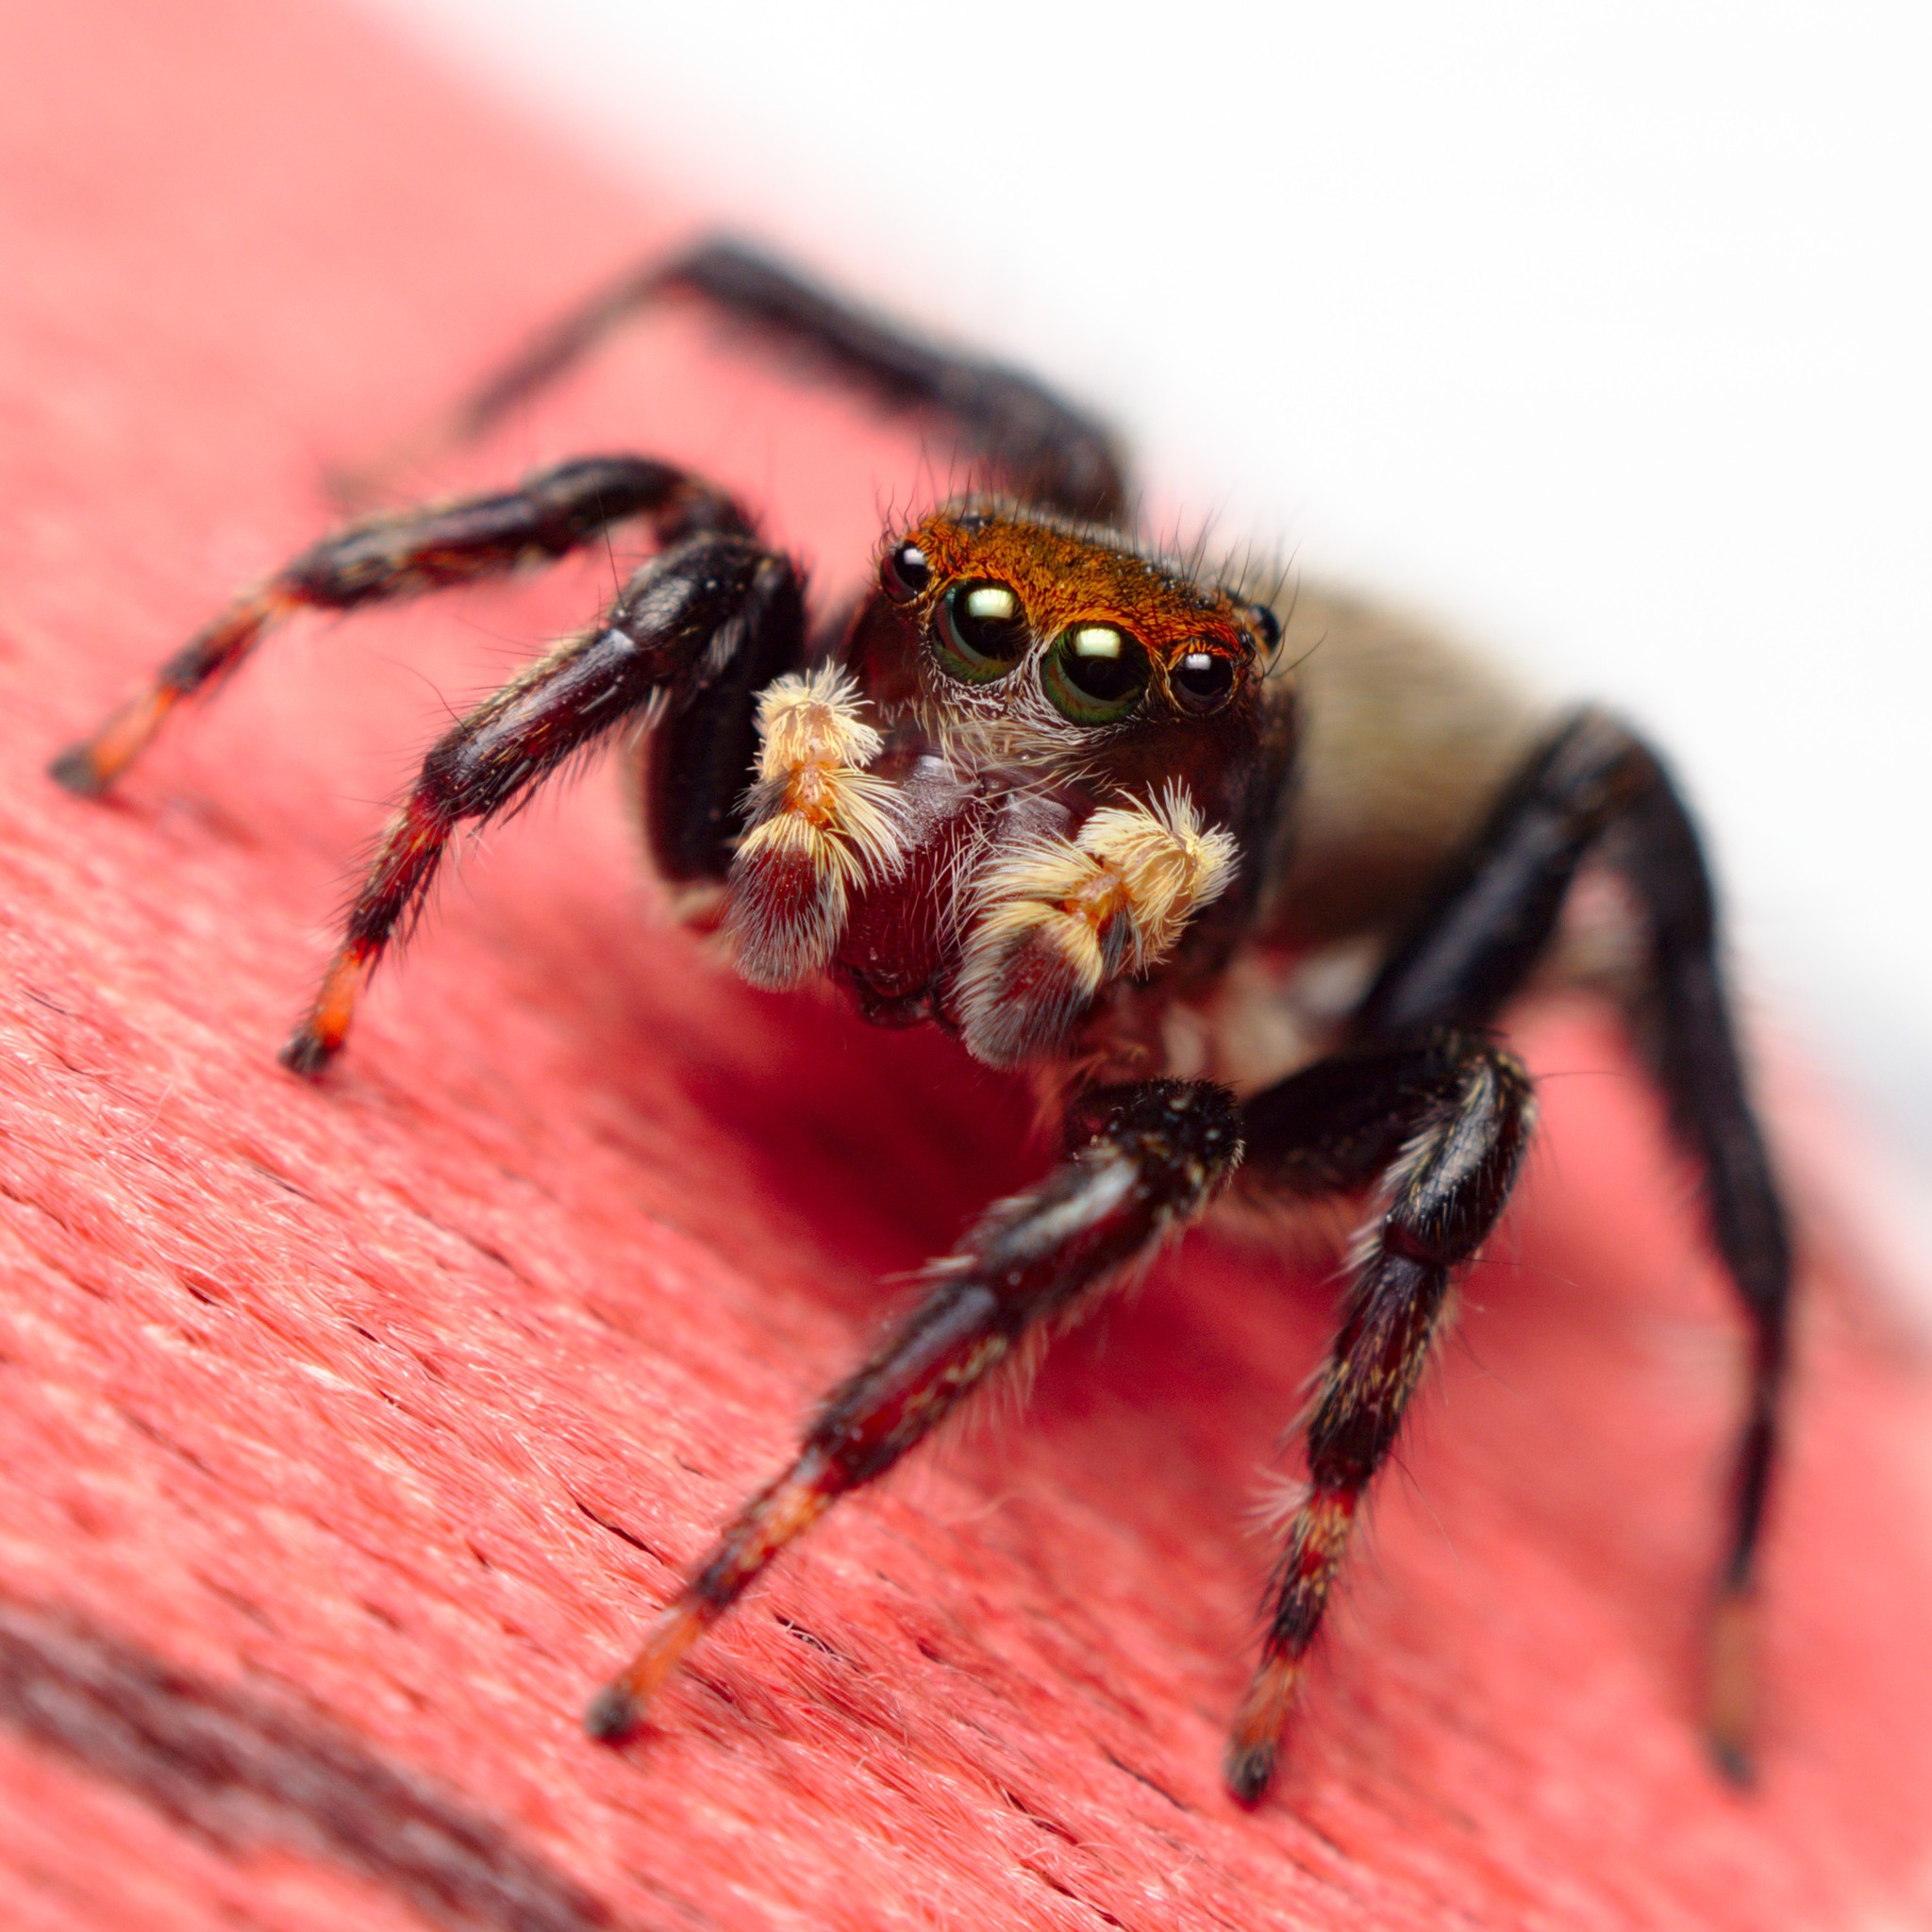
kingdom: Animalia
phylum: Arthropoda
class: Arachnida
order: Araneae
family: Salticidae
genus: Maratus
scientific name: Maratus griseus
